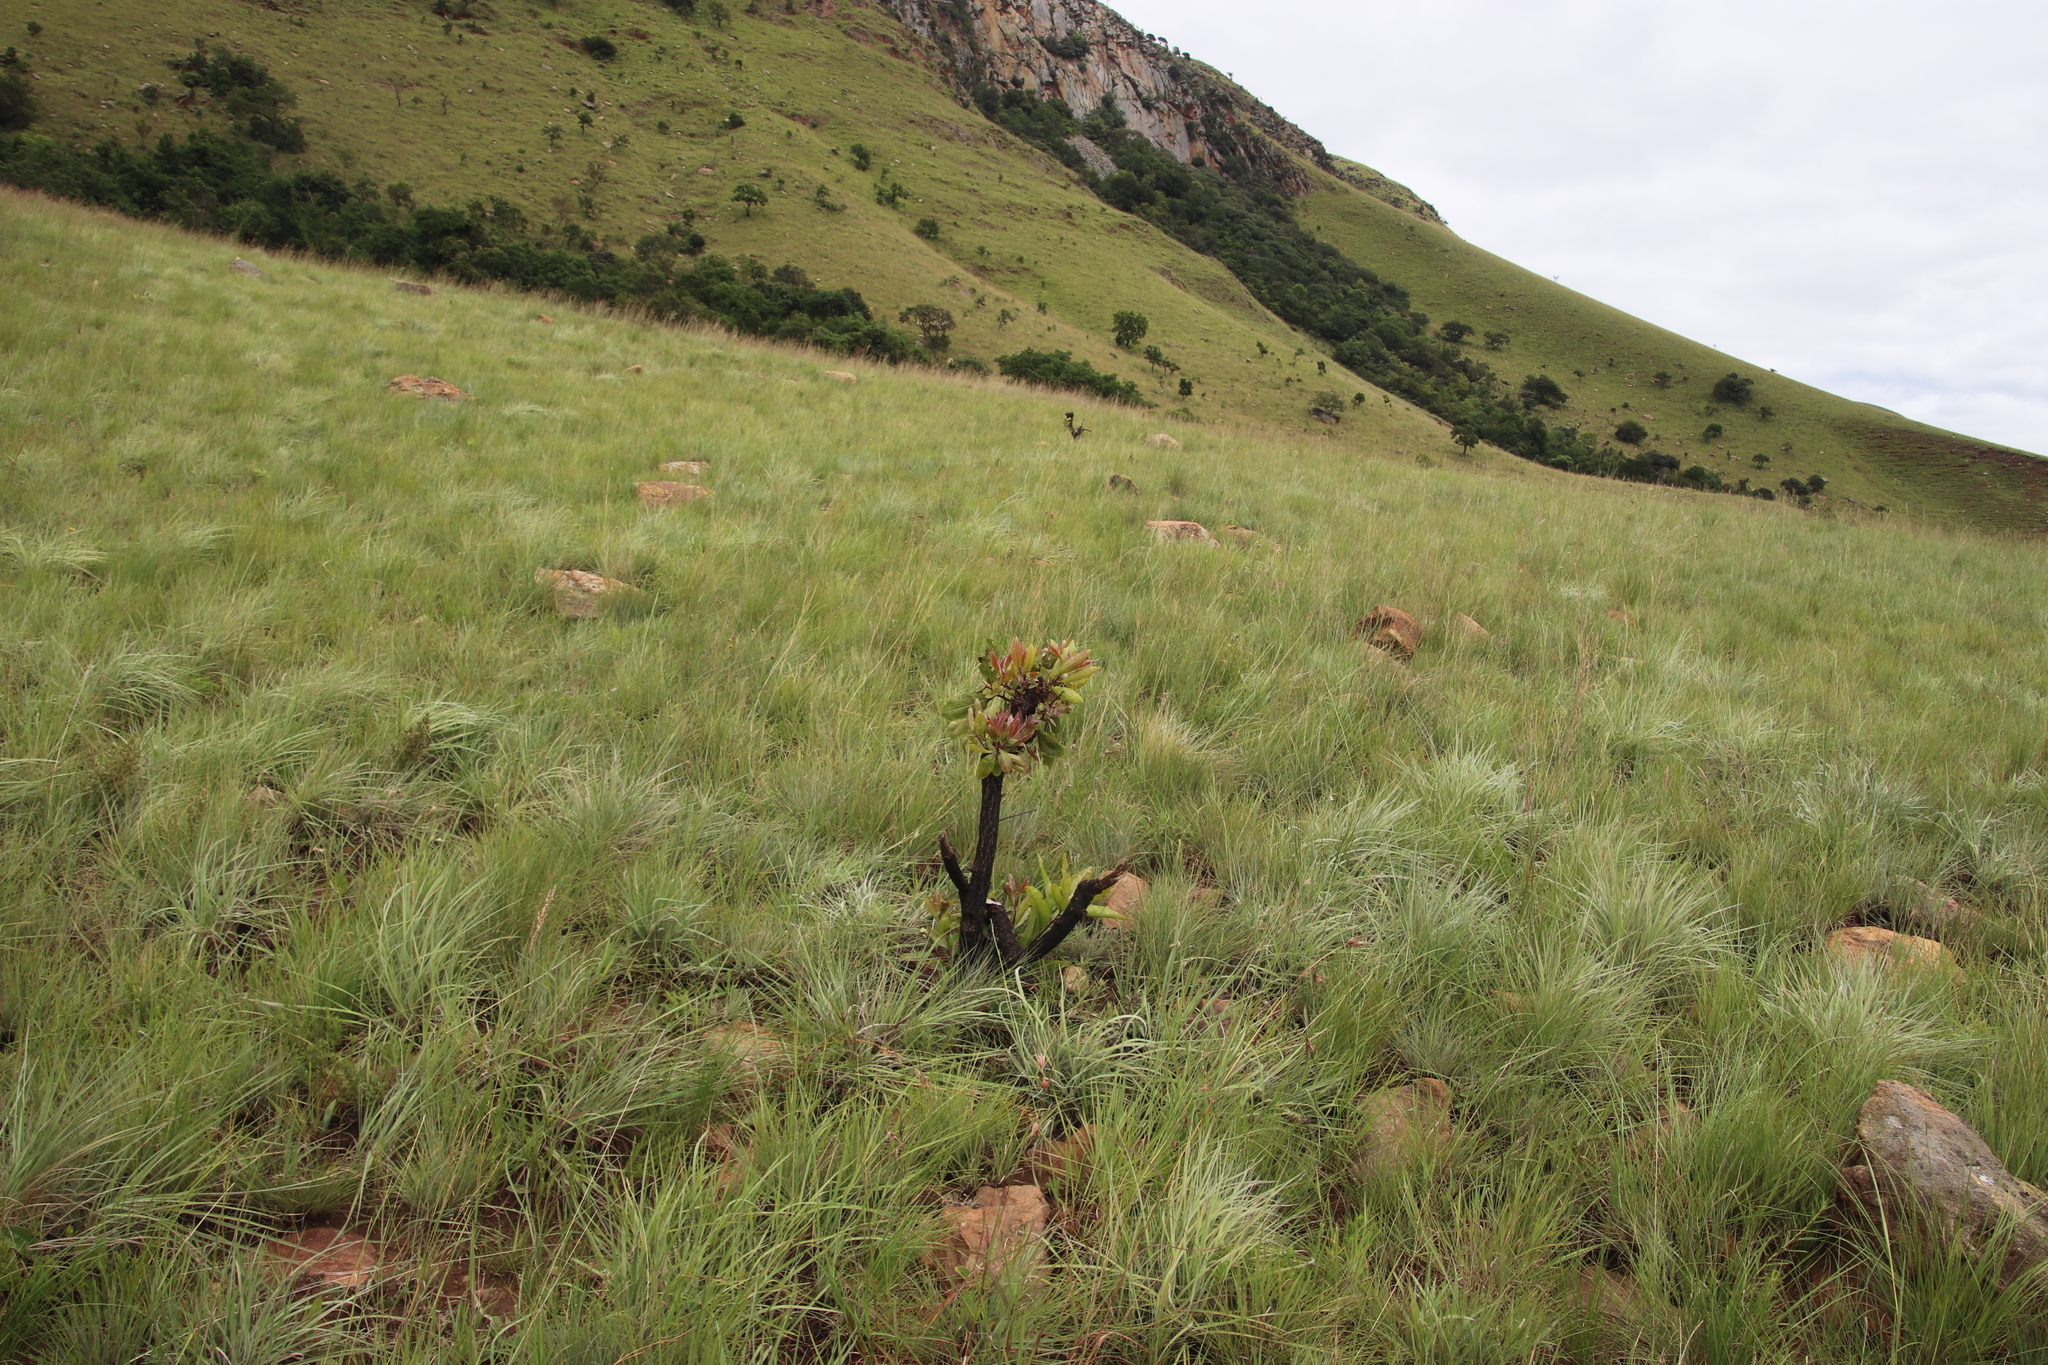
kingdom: Plantae
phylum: Tracheophyta
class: Magnoliopsida
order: Proteales
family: Proteaceae
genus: Faurea
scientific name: Faurea rochetiana
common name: Broad-leaved beech
